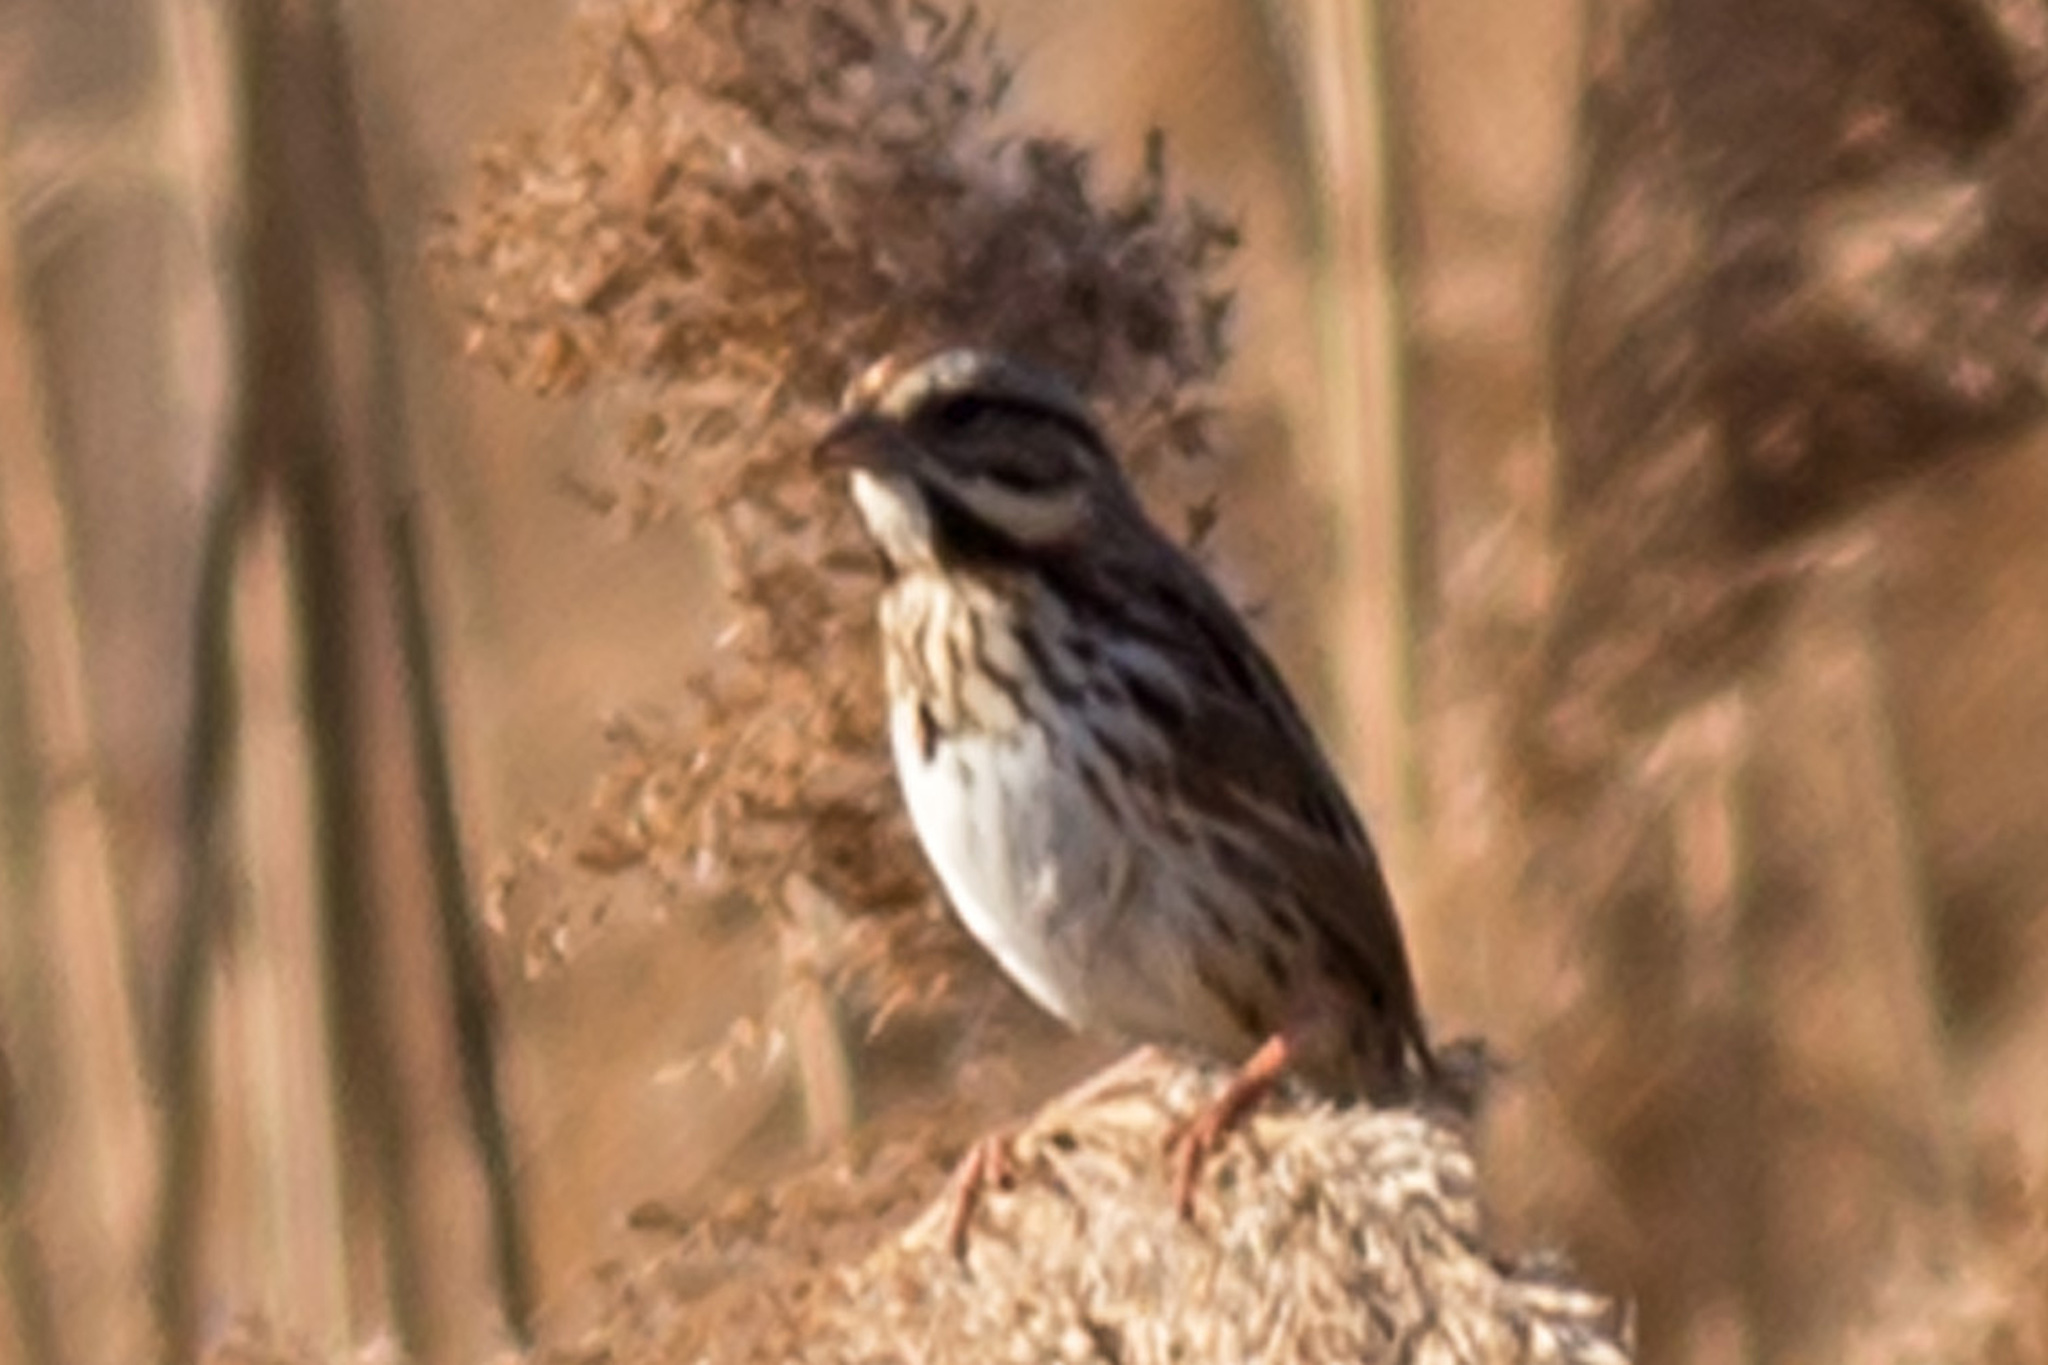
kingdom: Animalia
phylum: Chordata
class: Aves
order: Passeriformes
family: Passerellidae
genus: Melospiza
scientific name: Melospiza melodia
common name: Song sparrow
